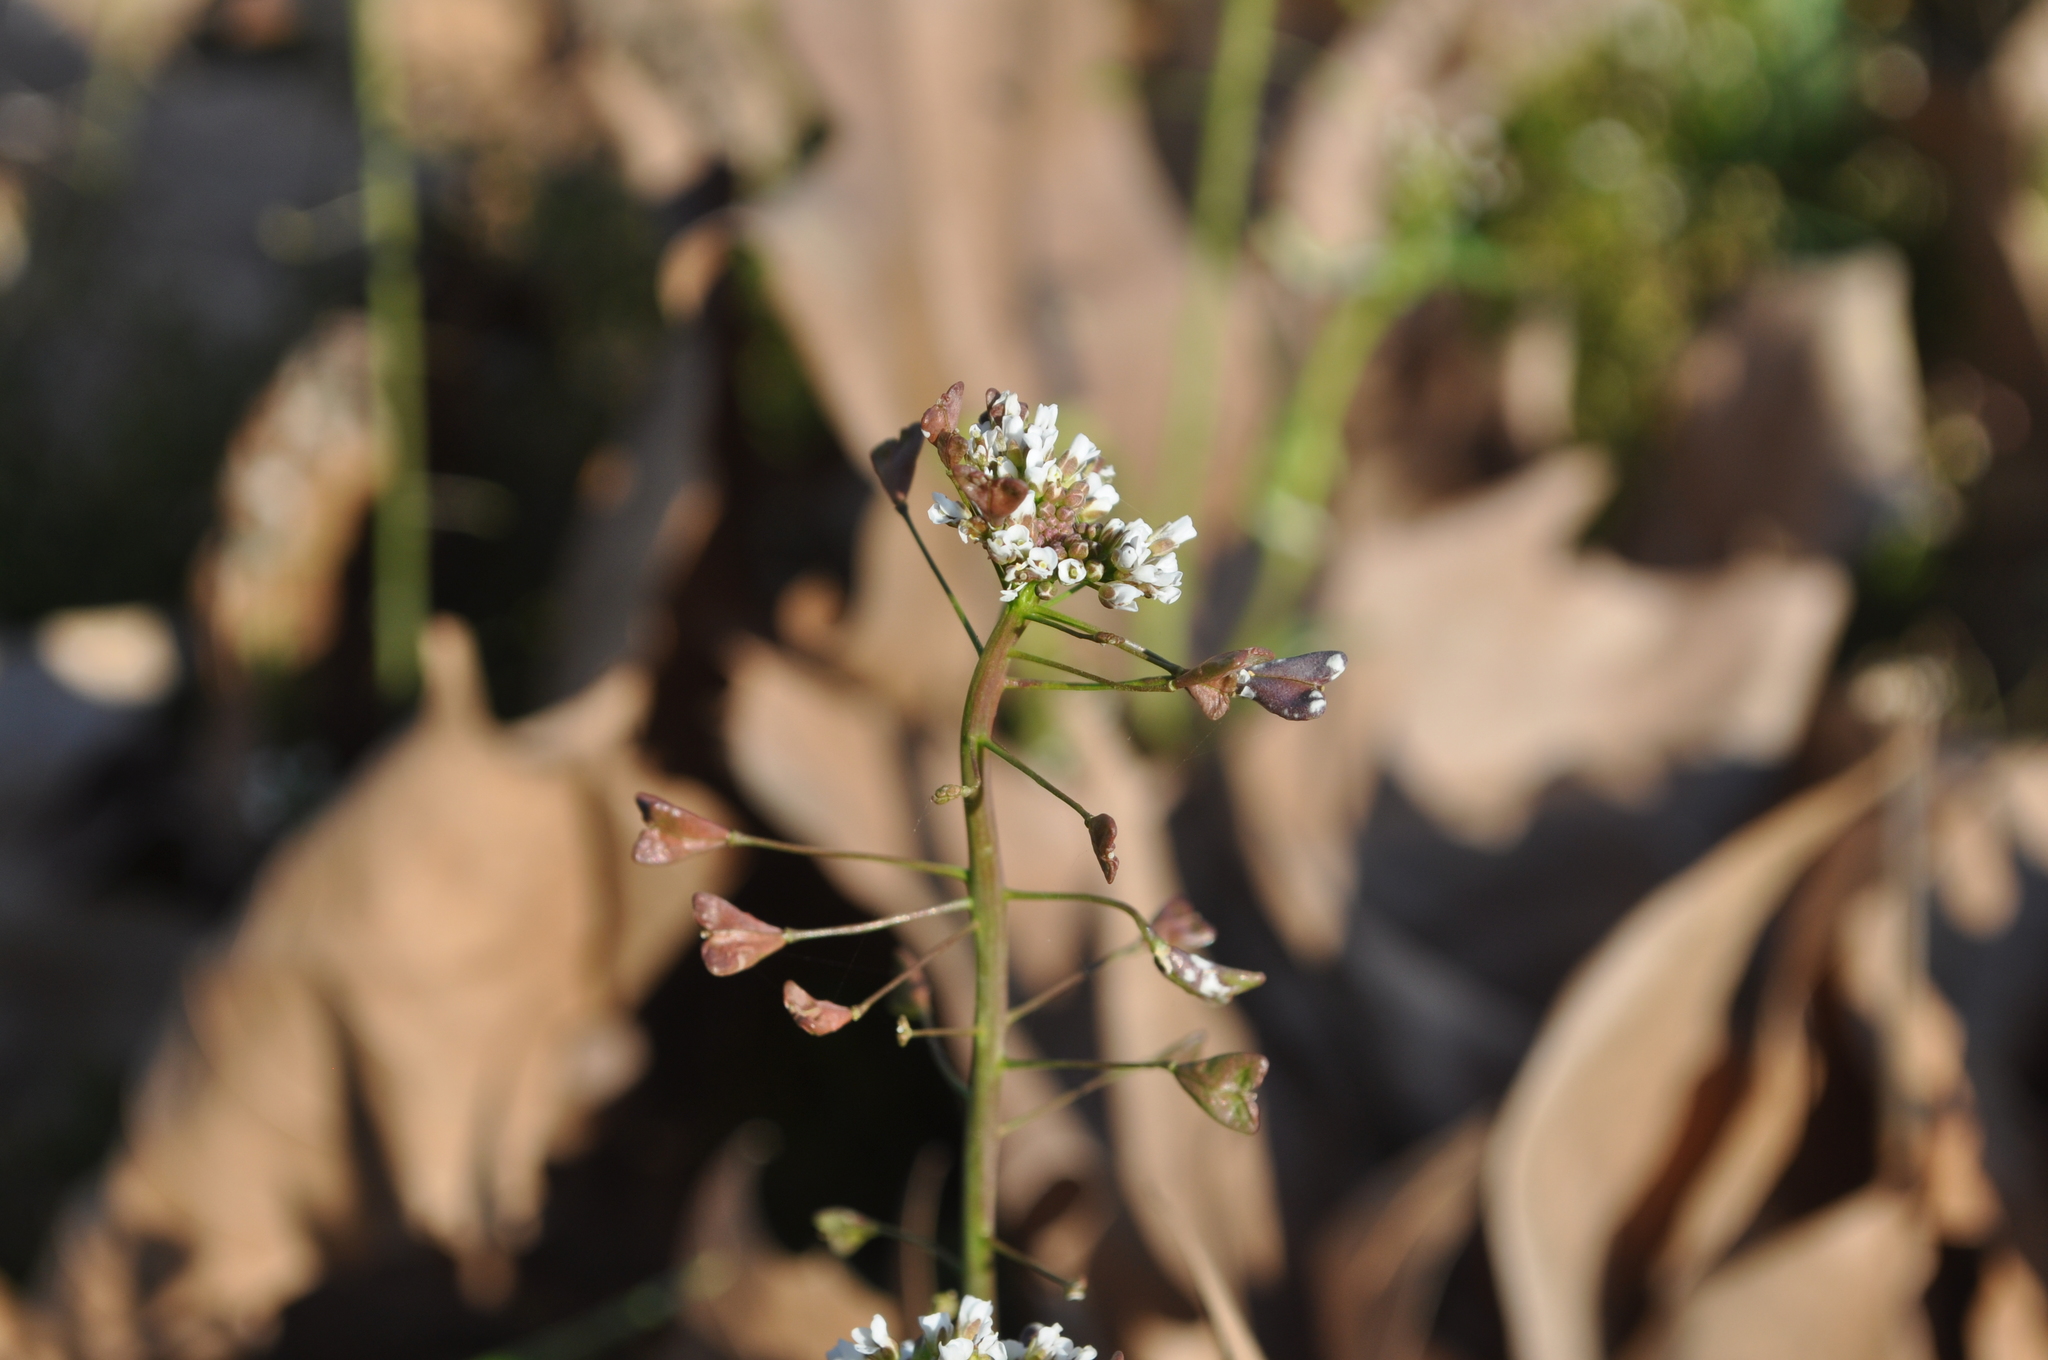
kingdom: Plantae
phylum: Tracheophyta
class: Magnoliopsida
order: Brassicales
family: Brassicaceae
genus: Capsella
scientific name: Capsella bursa-pastoris
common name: Shepherd's purse
